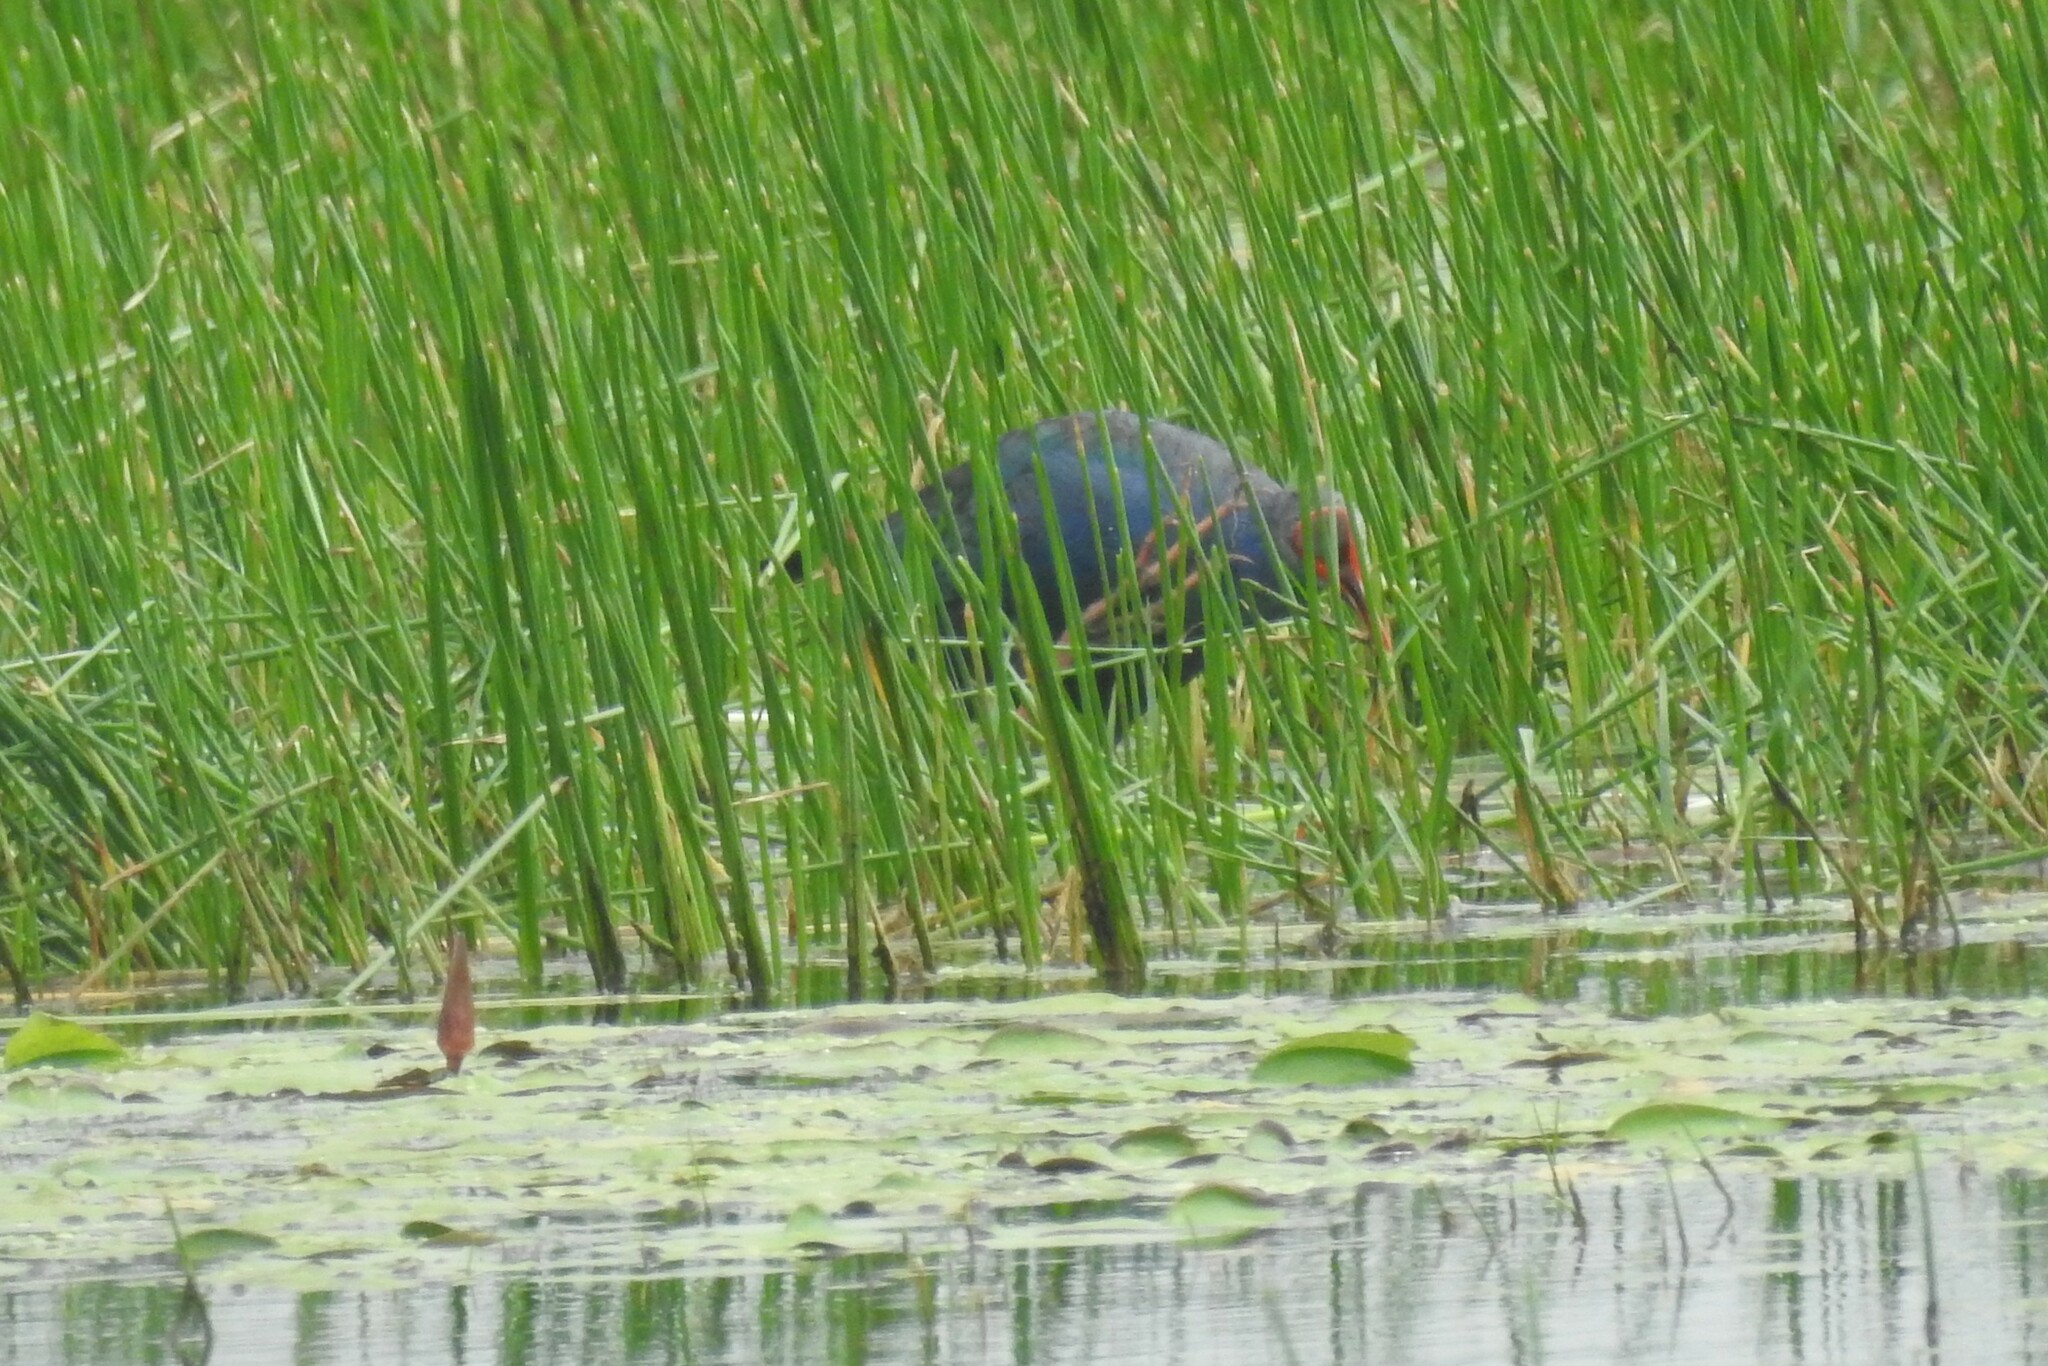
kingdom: Animalia
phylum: Chordata
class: Aves
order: Gruiformes
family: Rallidae
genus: Porphyrio
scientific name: Porphyrio porphyrio
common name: Purple swamphen
